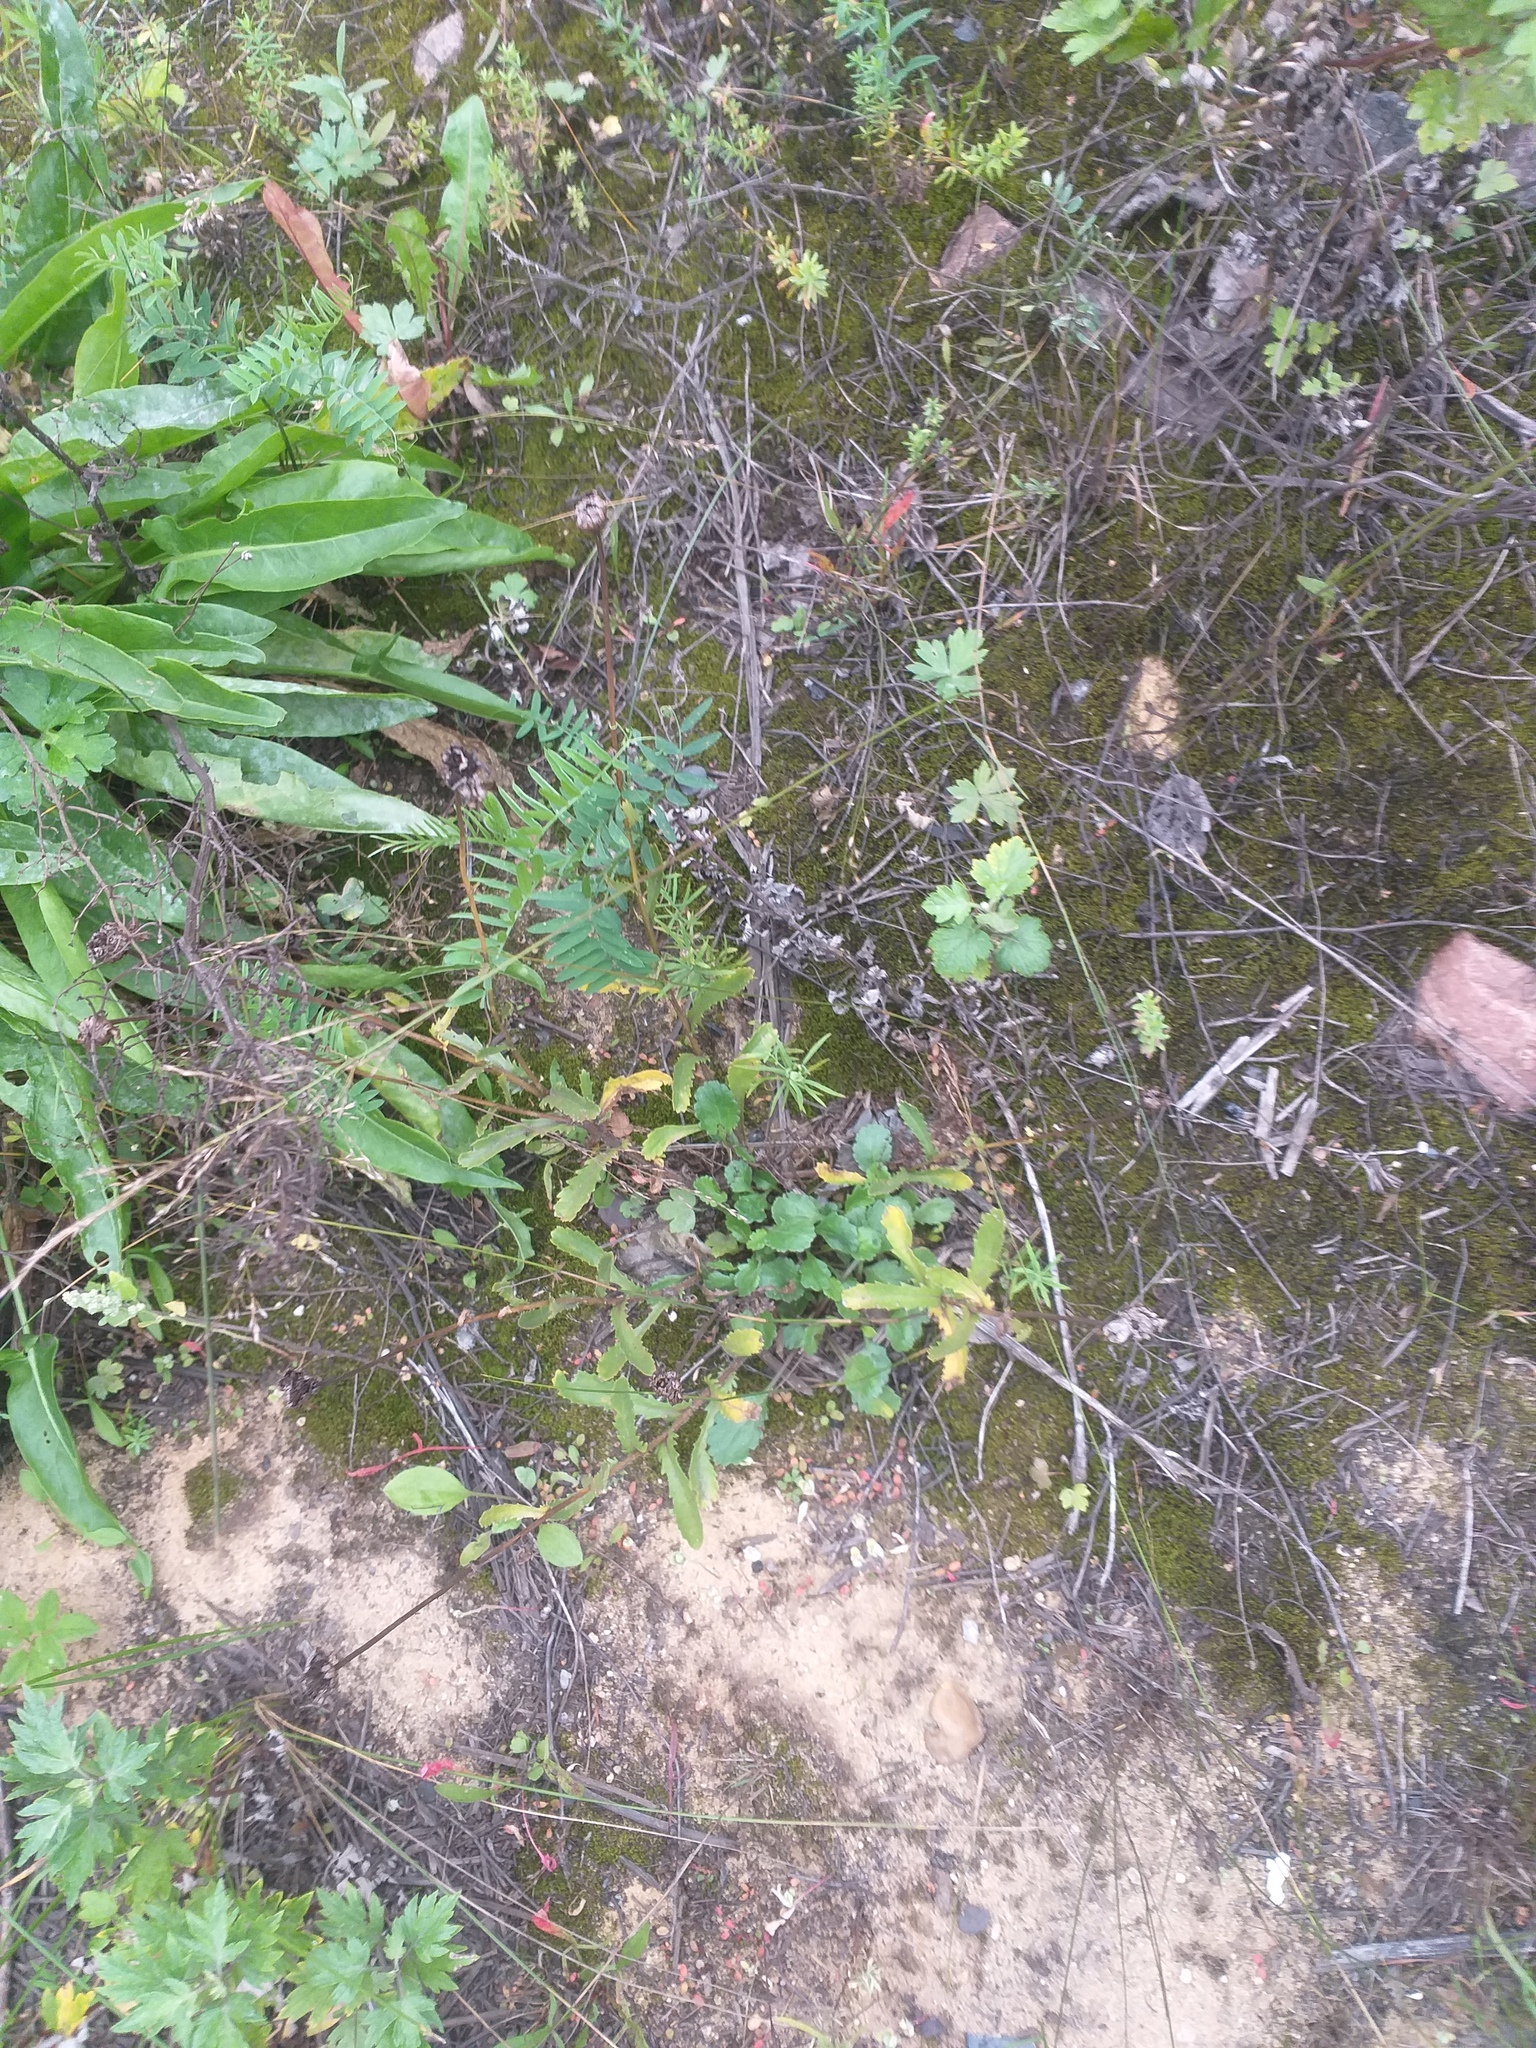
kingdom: Plantae
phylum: Tracheophyta
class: Magnoliopsida
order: Asterales
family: Asteraceae
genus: Leucanthemum
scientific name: Leucanthemum vulgare
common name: Oxeye daisy
